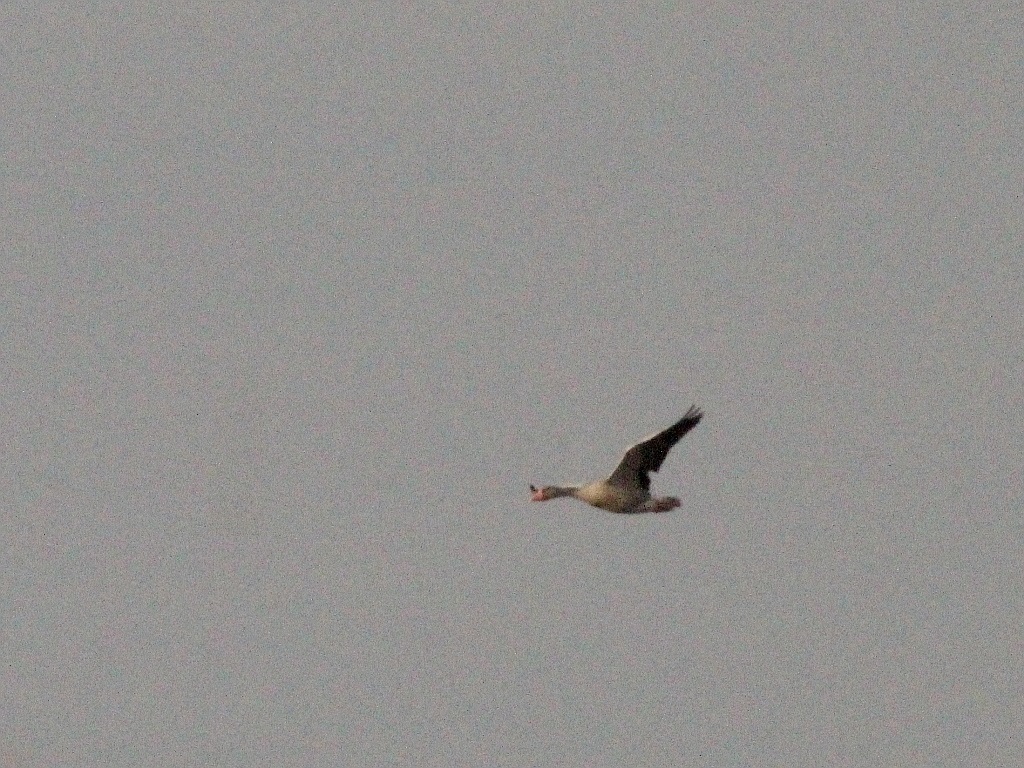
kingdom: Animalia
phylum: Chordata
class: Aves
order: Anseriformes
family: Anatidae
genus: Anser
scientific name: Anser anser
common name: Greylag goose
